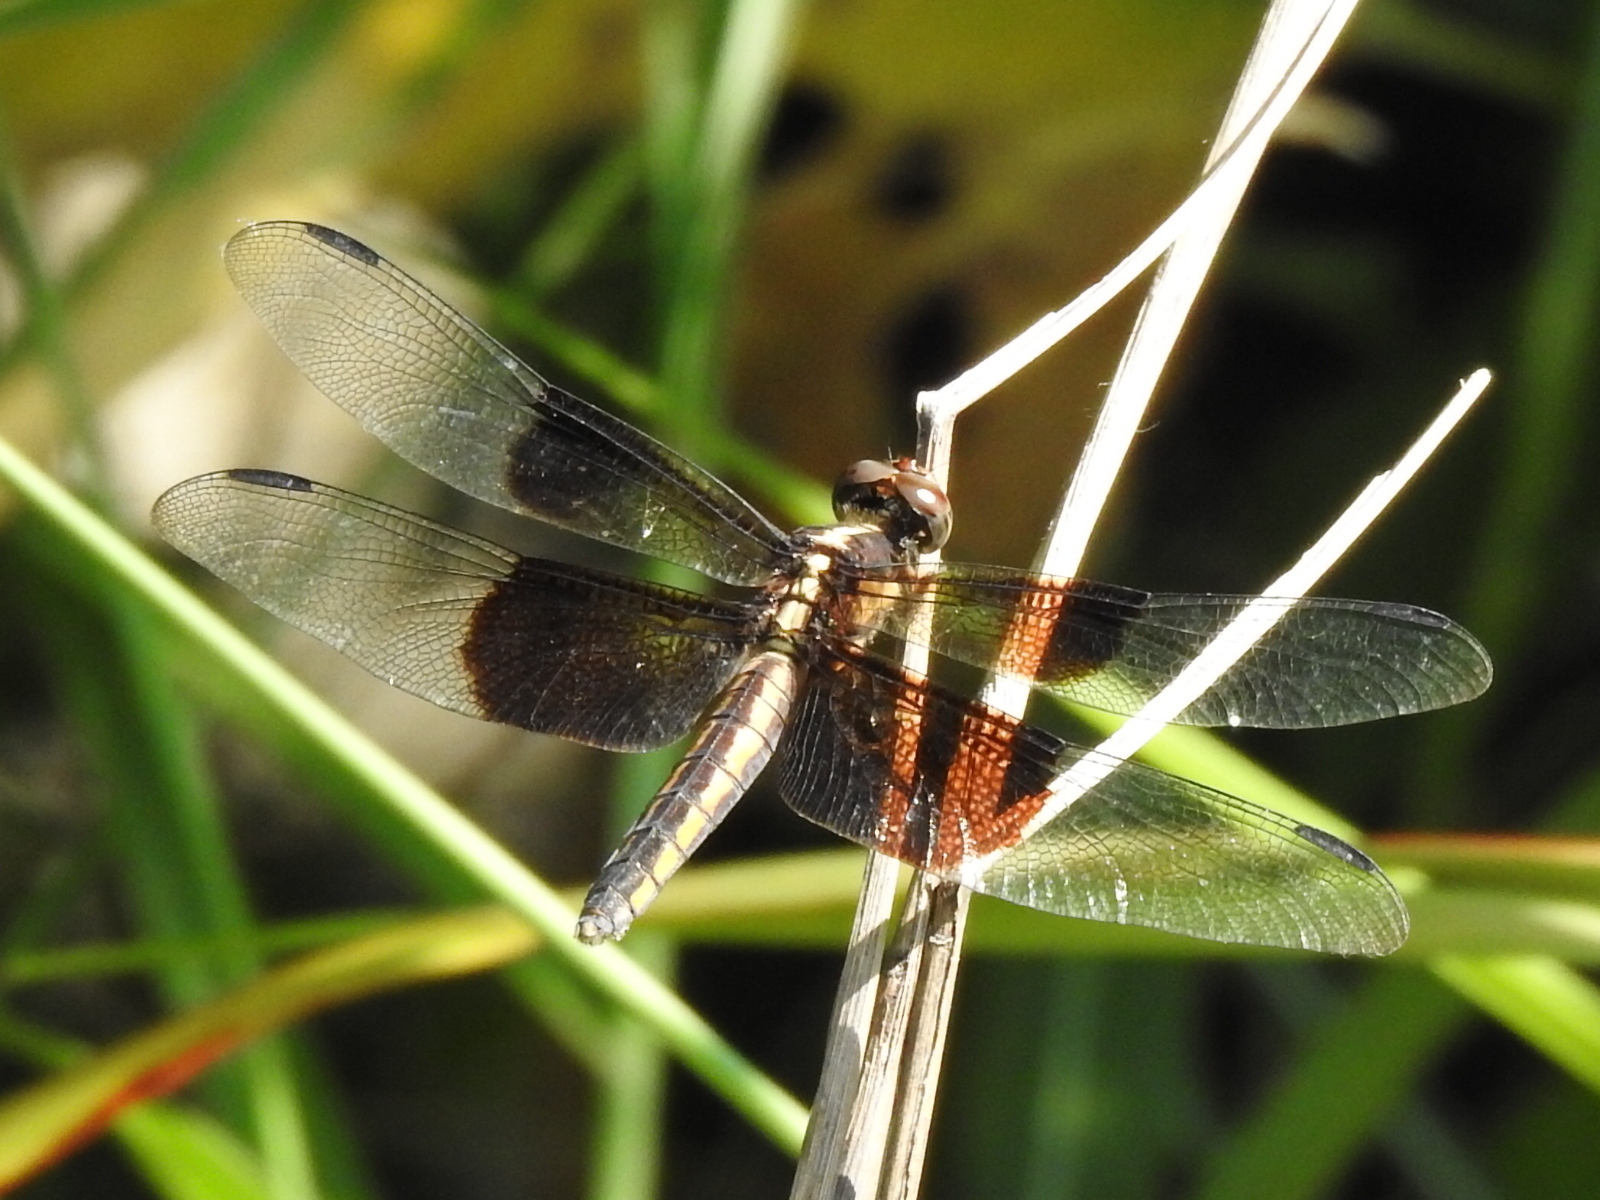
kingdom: Animalia
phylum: Arthropoda
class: Insecta
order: Odonata
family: Libellulidae
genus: Libellula
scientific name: Libellula luctuosa
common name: Widow skimmer
